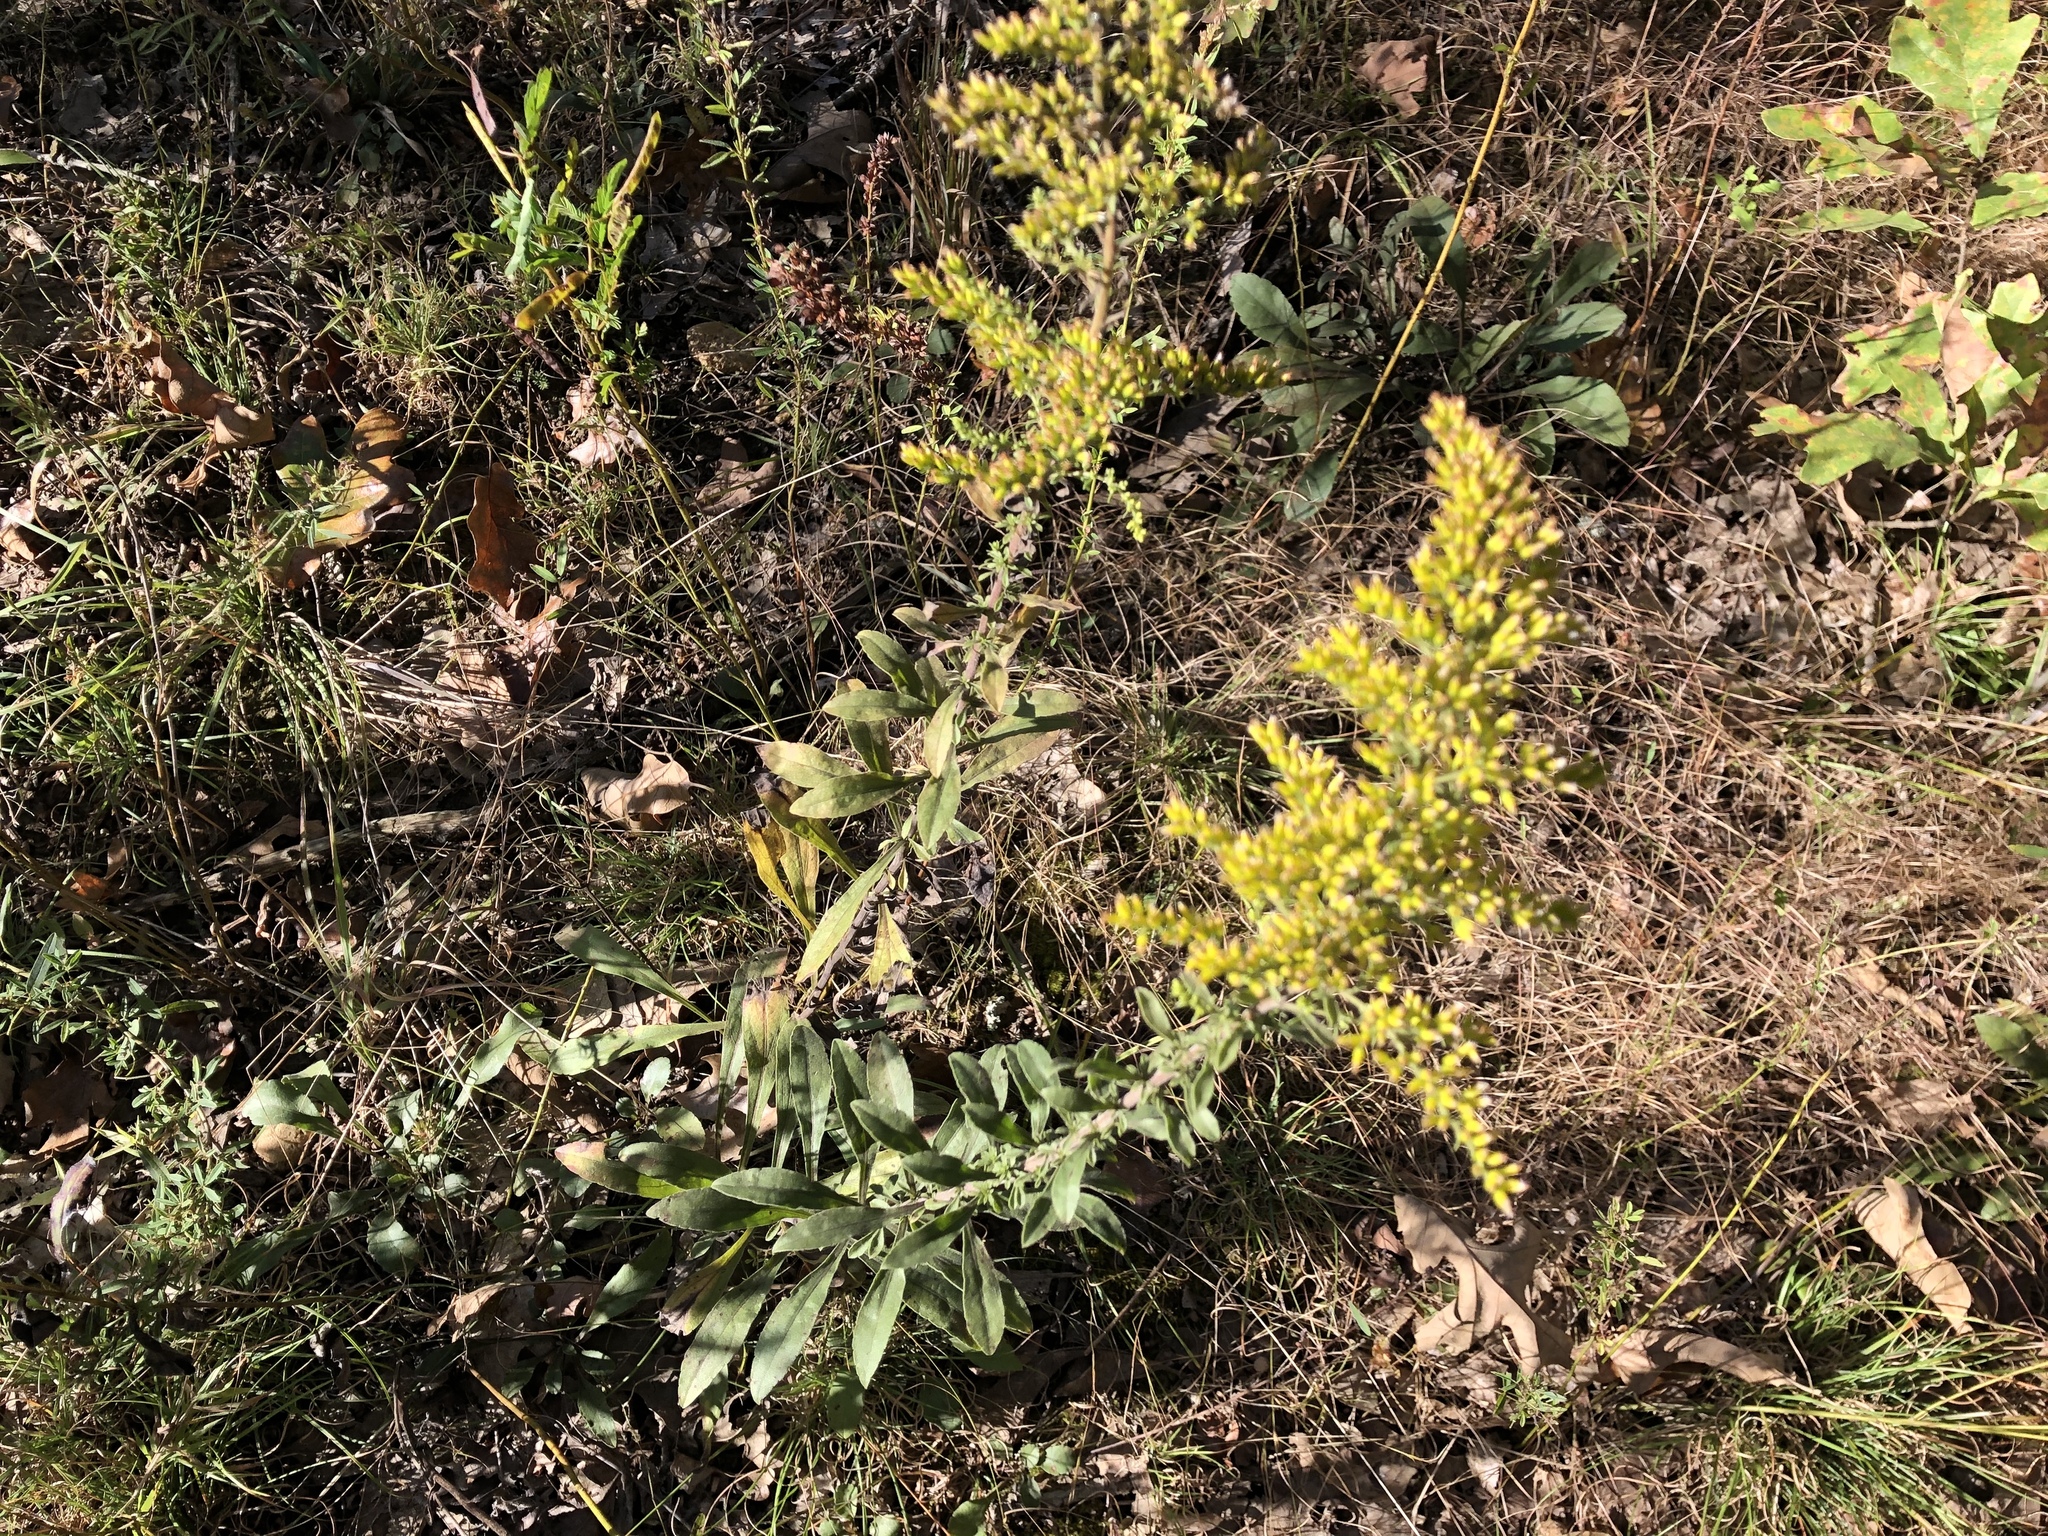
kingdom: Plantae
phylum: Tracheophyta
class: Magnoliopsida
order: Asterales
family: Asteraceae
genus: Solidago
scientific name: Solidago nemoralis
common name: Grey goldenrod
